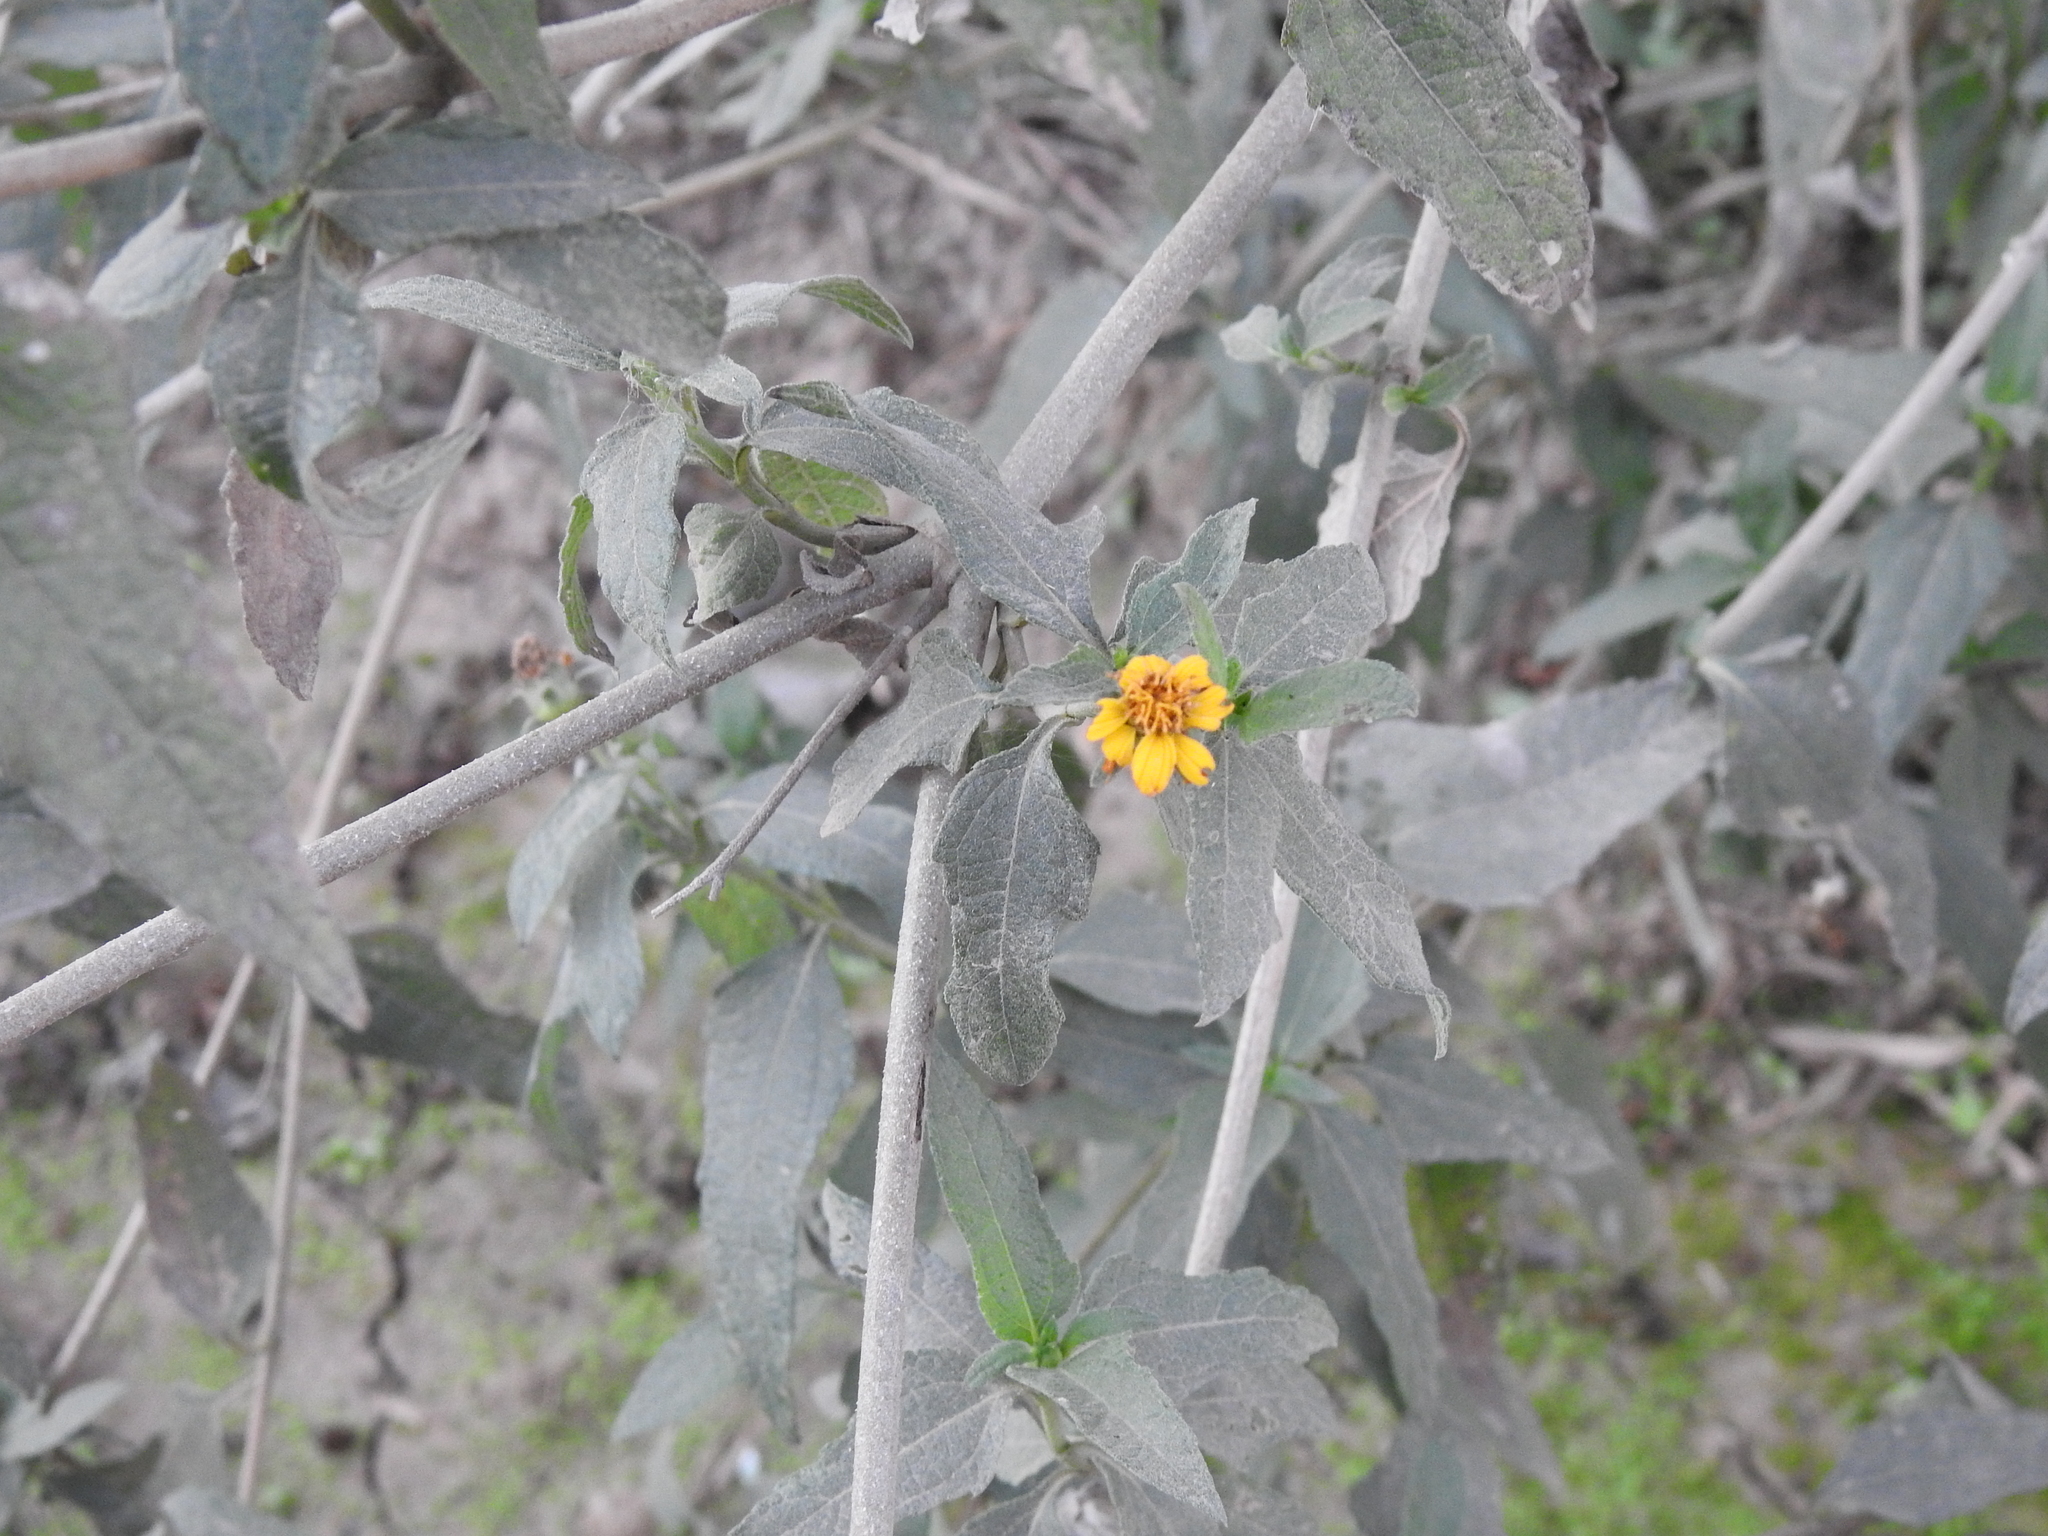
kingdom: Plantae
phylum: Tracheophyta
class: Magnoliopsida
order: Asterales
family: Asteraceae
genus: Wedelia
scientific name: Wedelia silphioides
